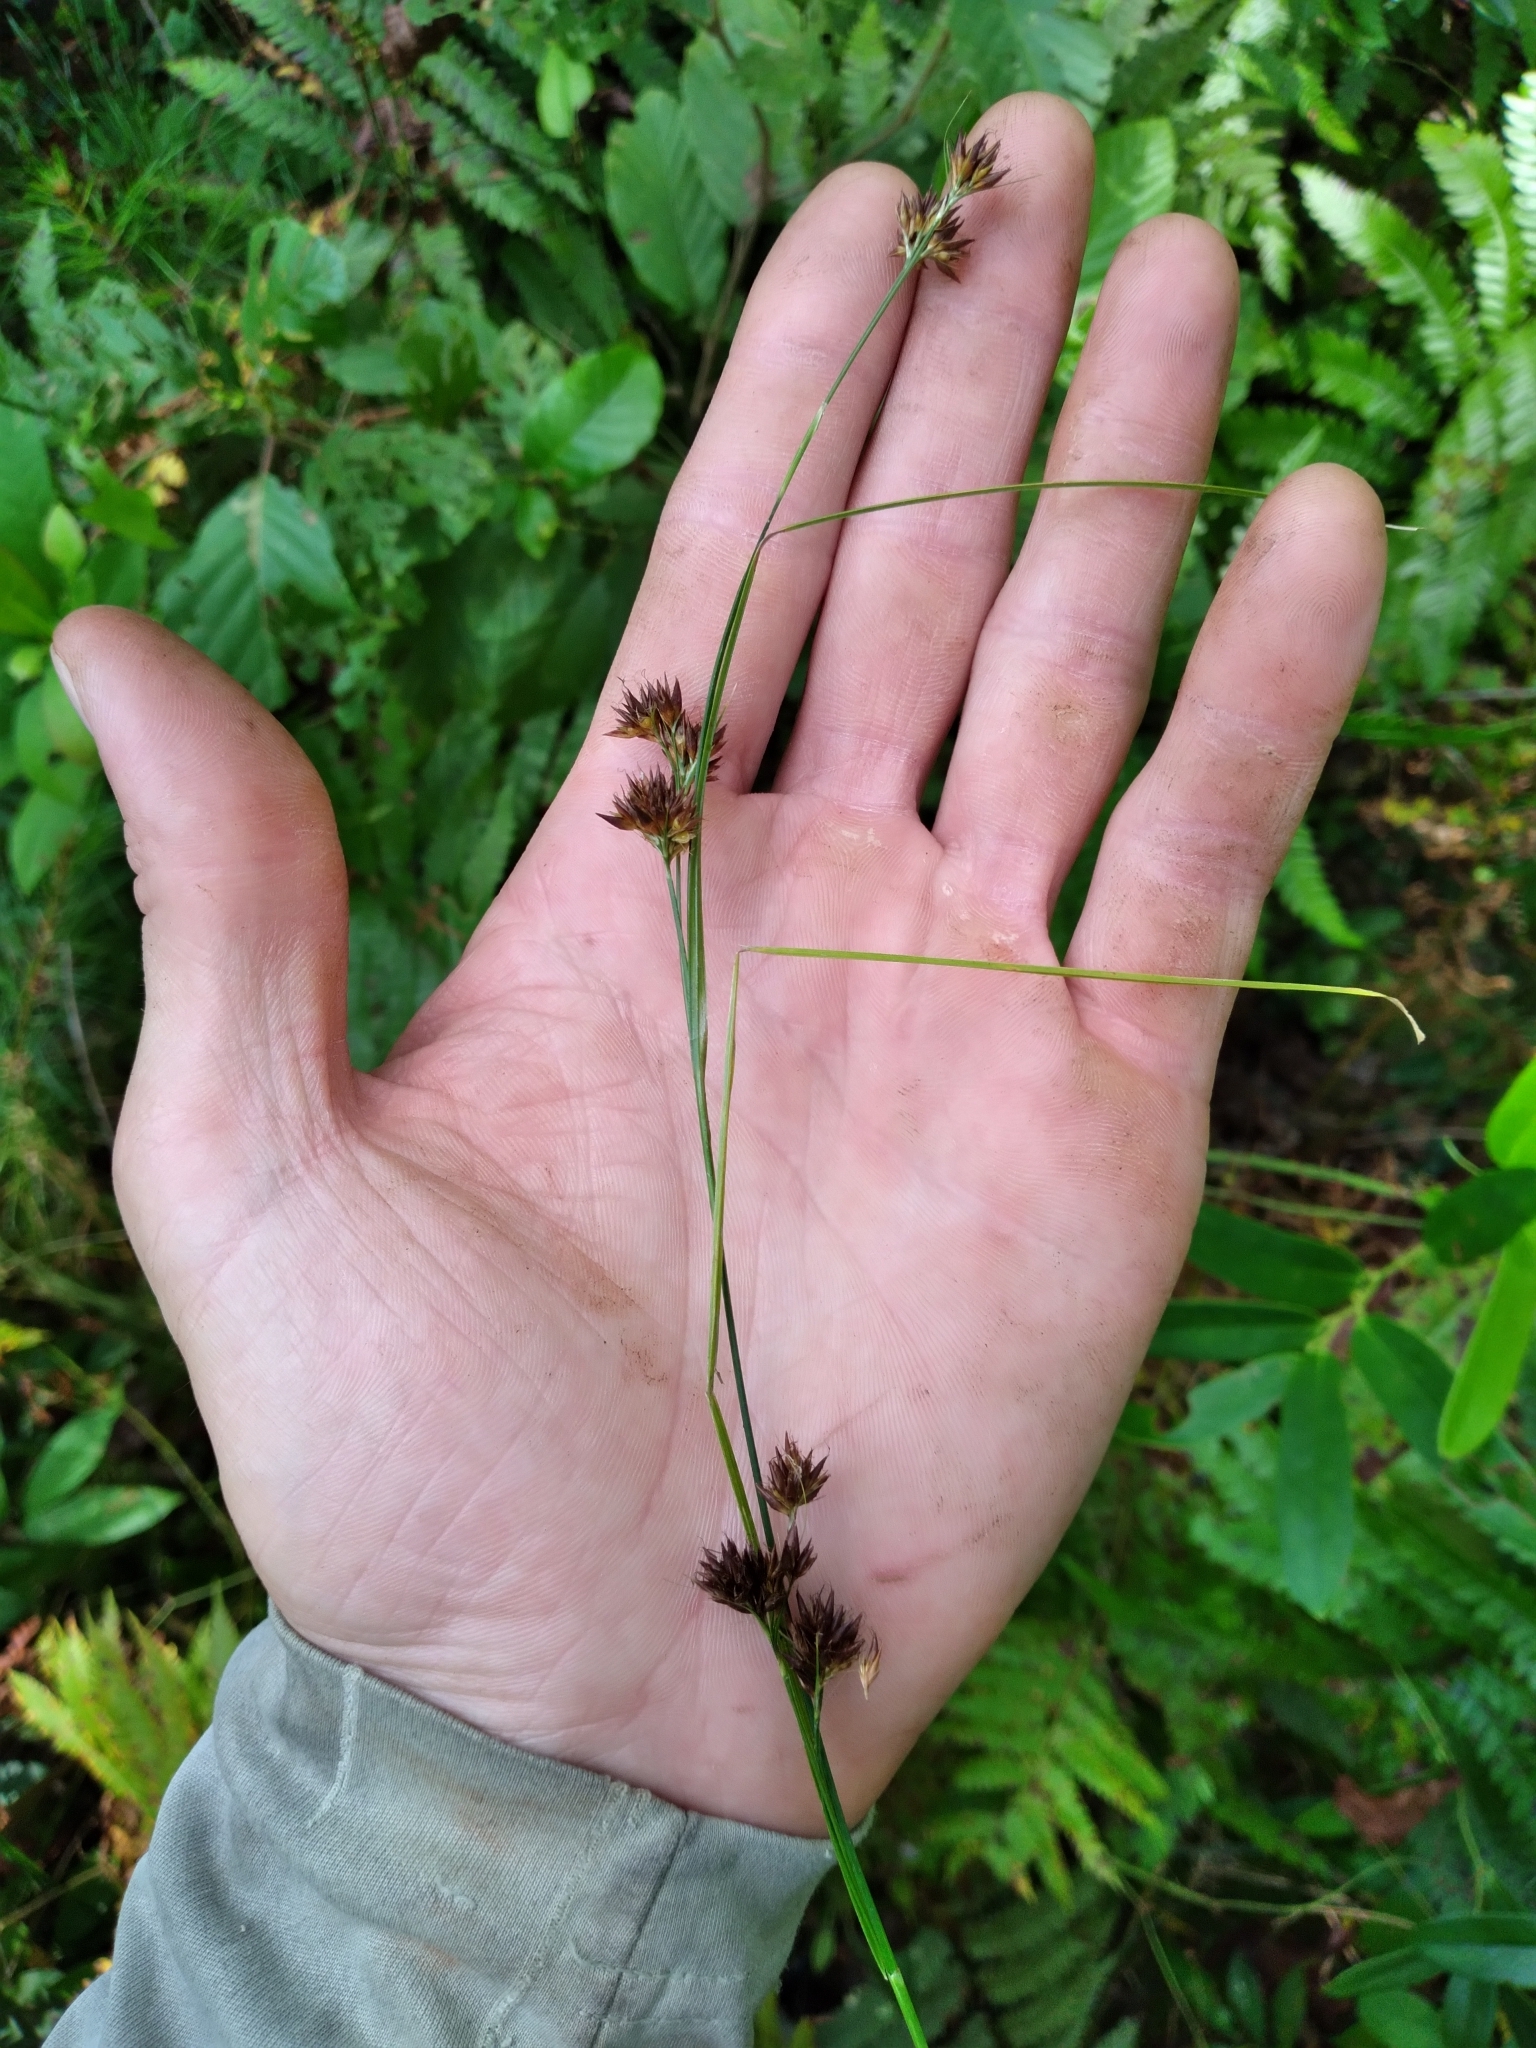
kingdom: Plantae
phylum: Tracheophyta
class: Liliopsida
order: Poales
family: Cyperaceae
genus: Rhynchospora
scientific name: Rhynchospora glomerata
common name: Cluster beak sedge
